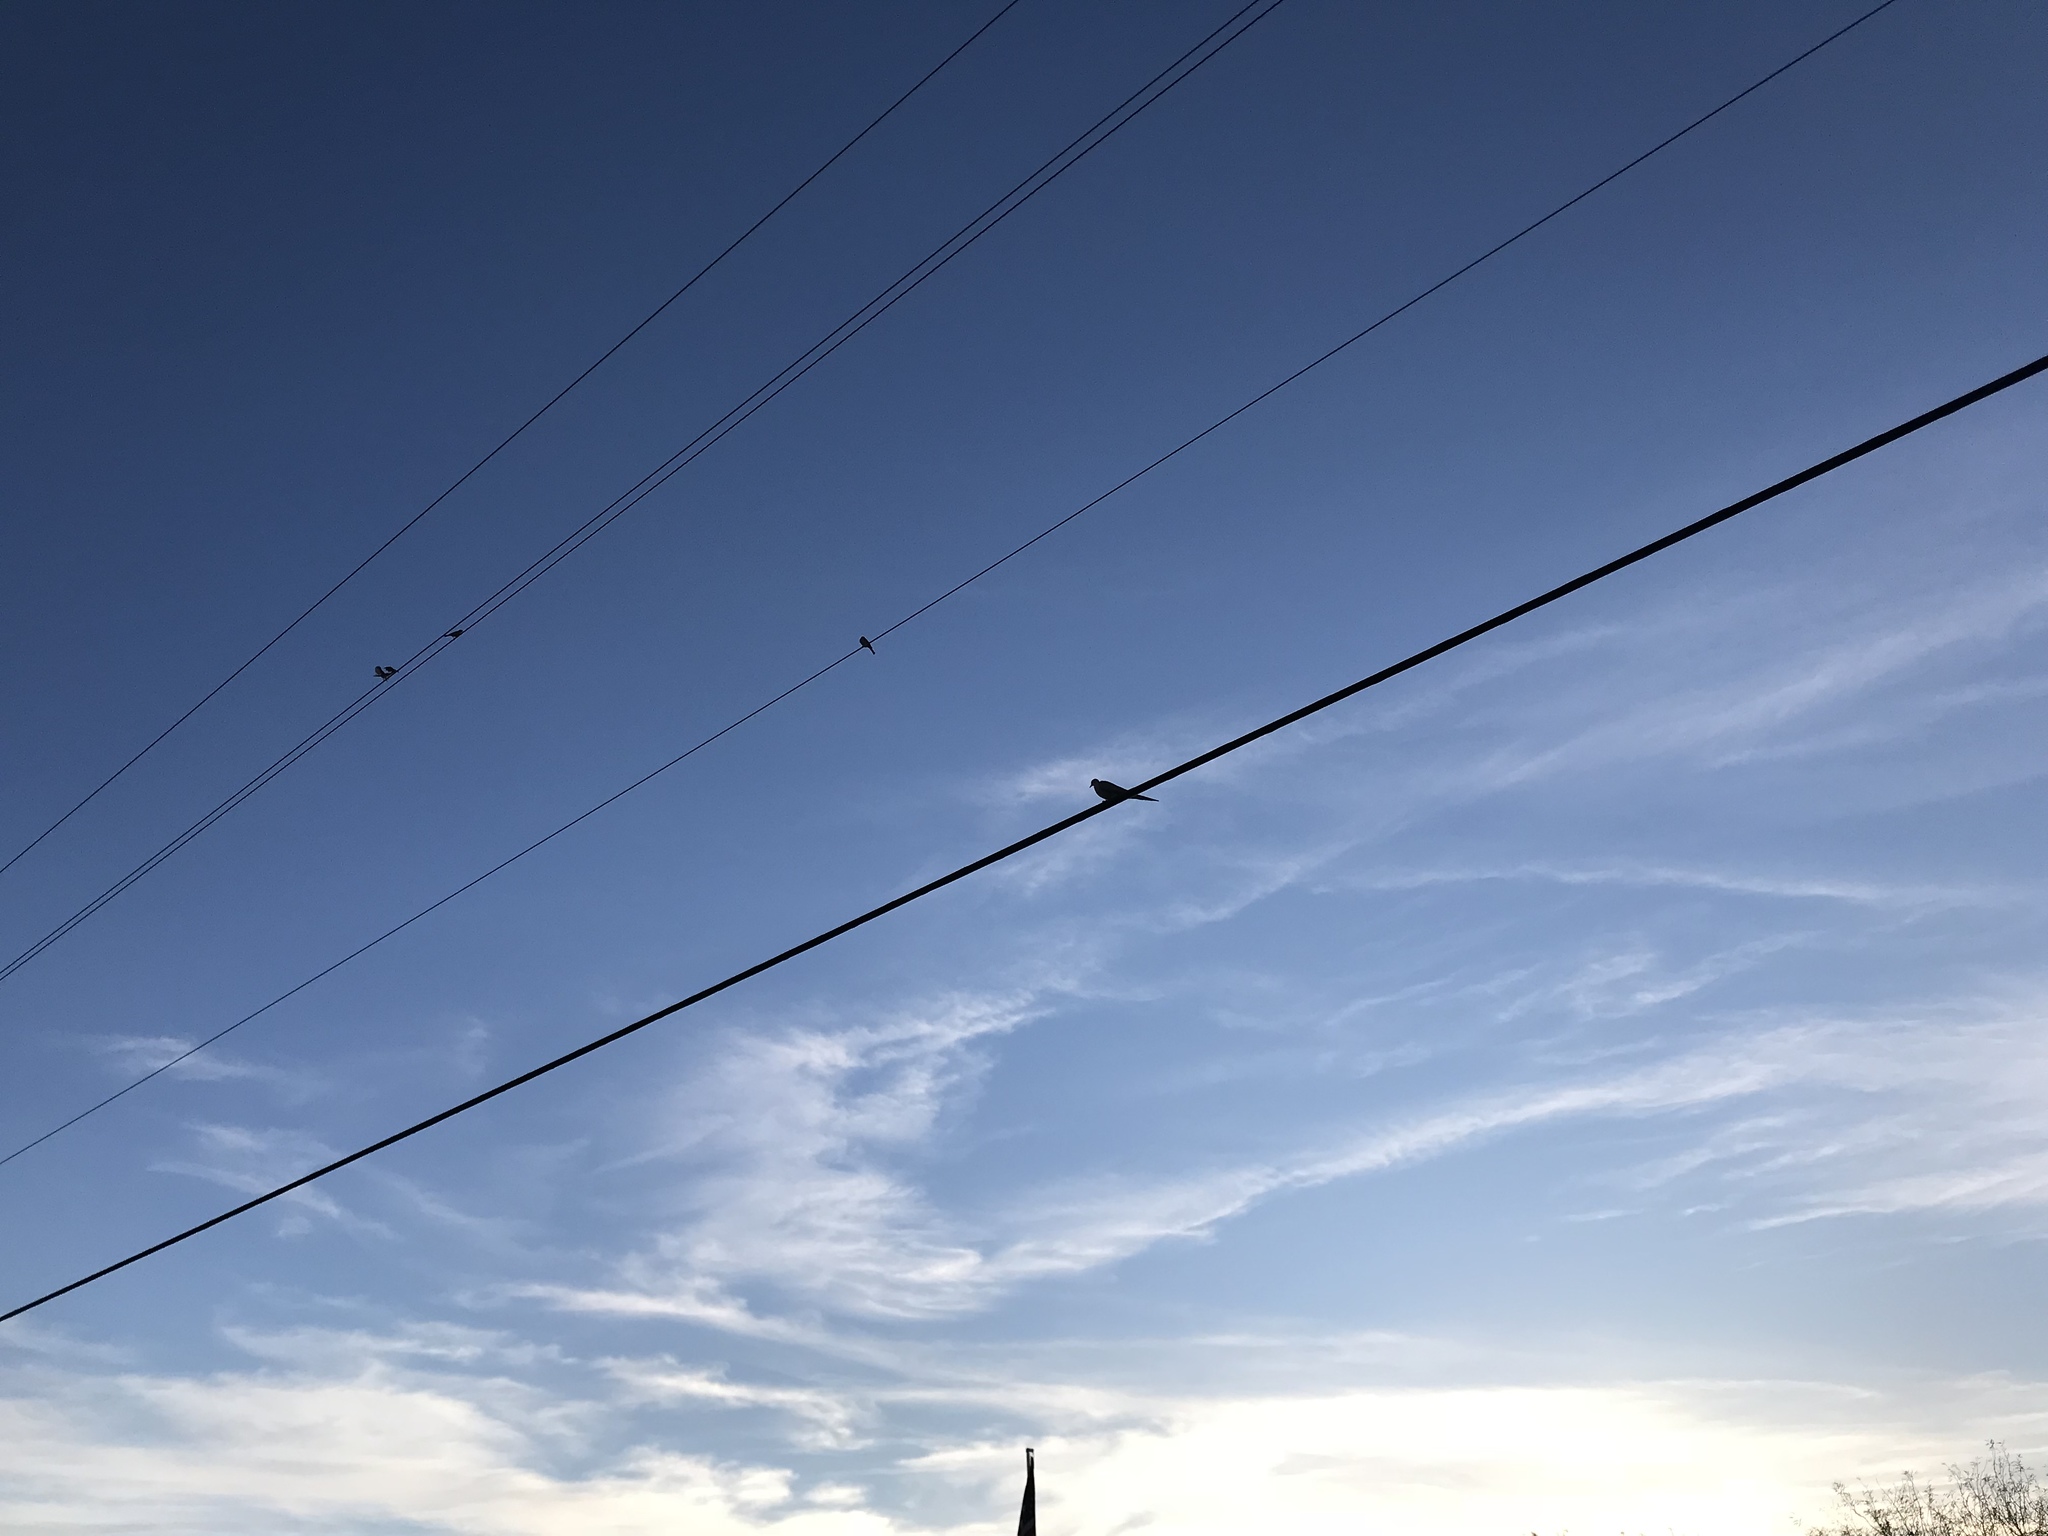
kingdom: Animalia
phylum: Chordata
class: Aves
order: Columbiformes
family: Columbidae
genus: Zenaida
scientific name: Zenaida macroura
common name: Mourning dove
